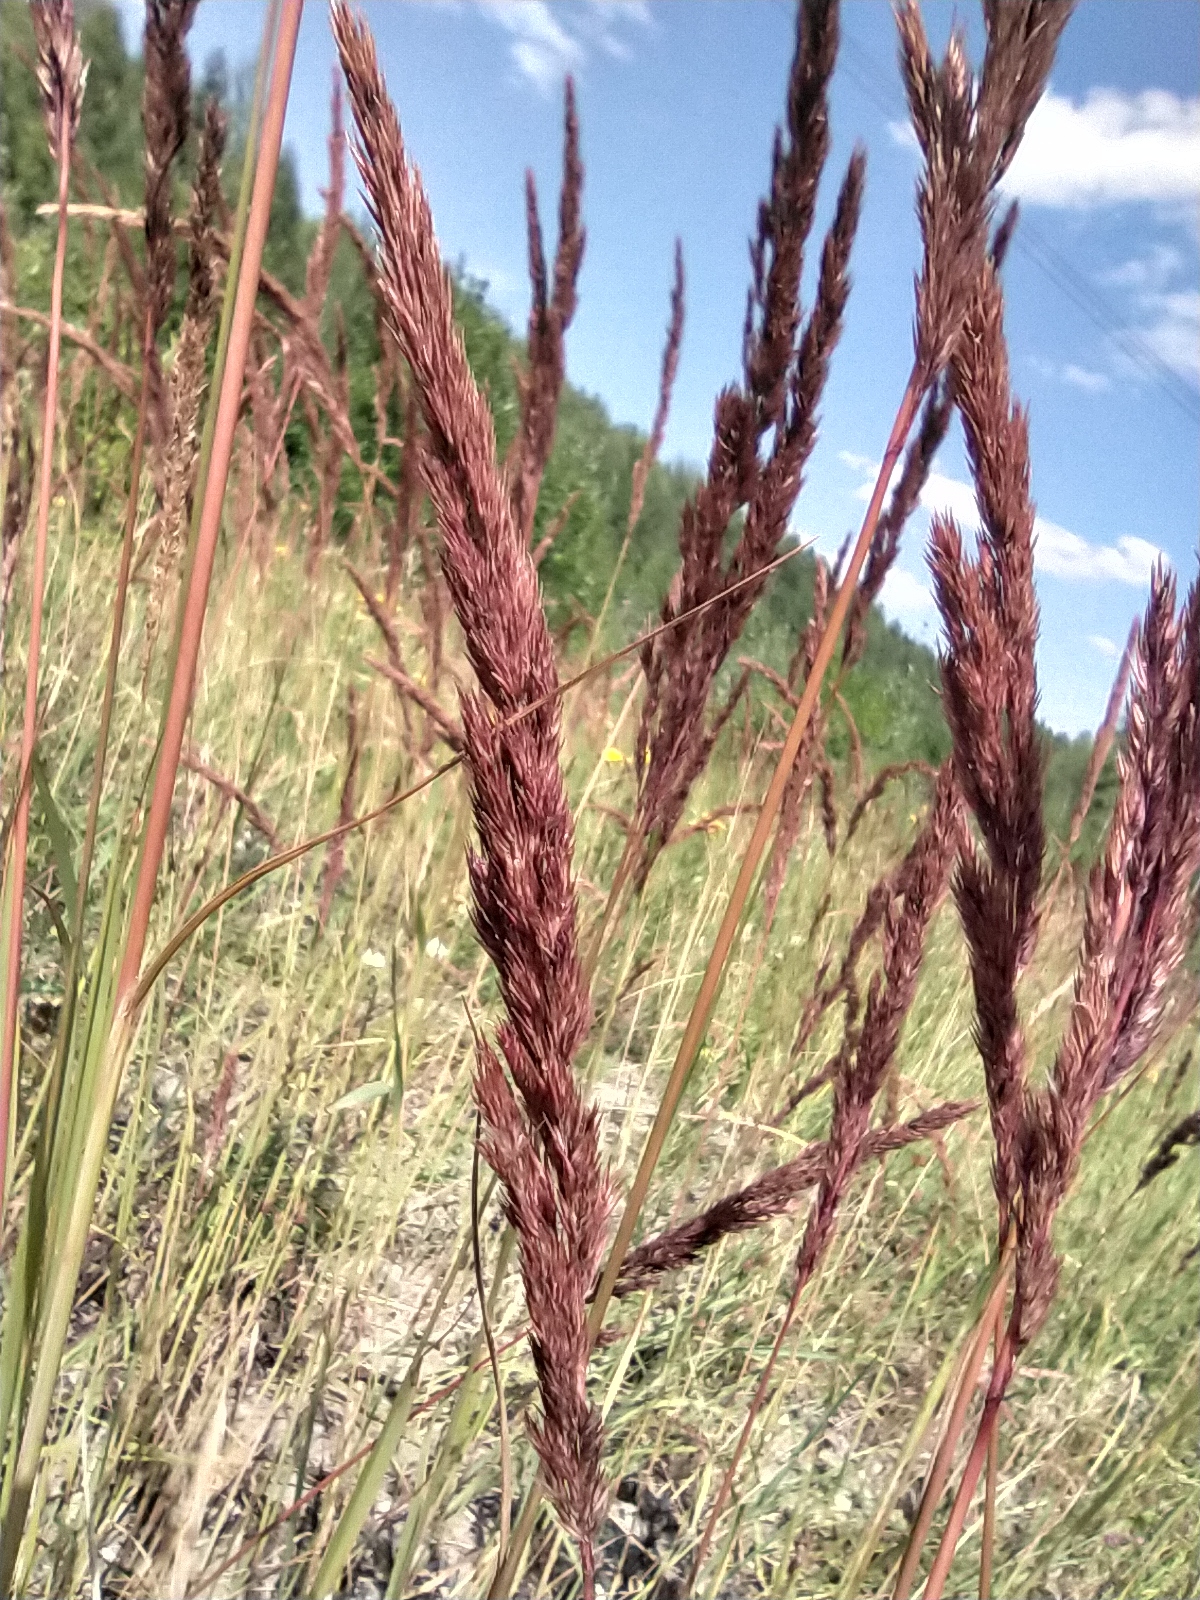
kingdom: Plantae
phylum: Tracheophyta
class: Liliopsida
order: Poales
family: Poaceae
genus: Calamagrostis
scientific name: Calamagrostis epigejos
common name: Wood small-reed
